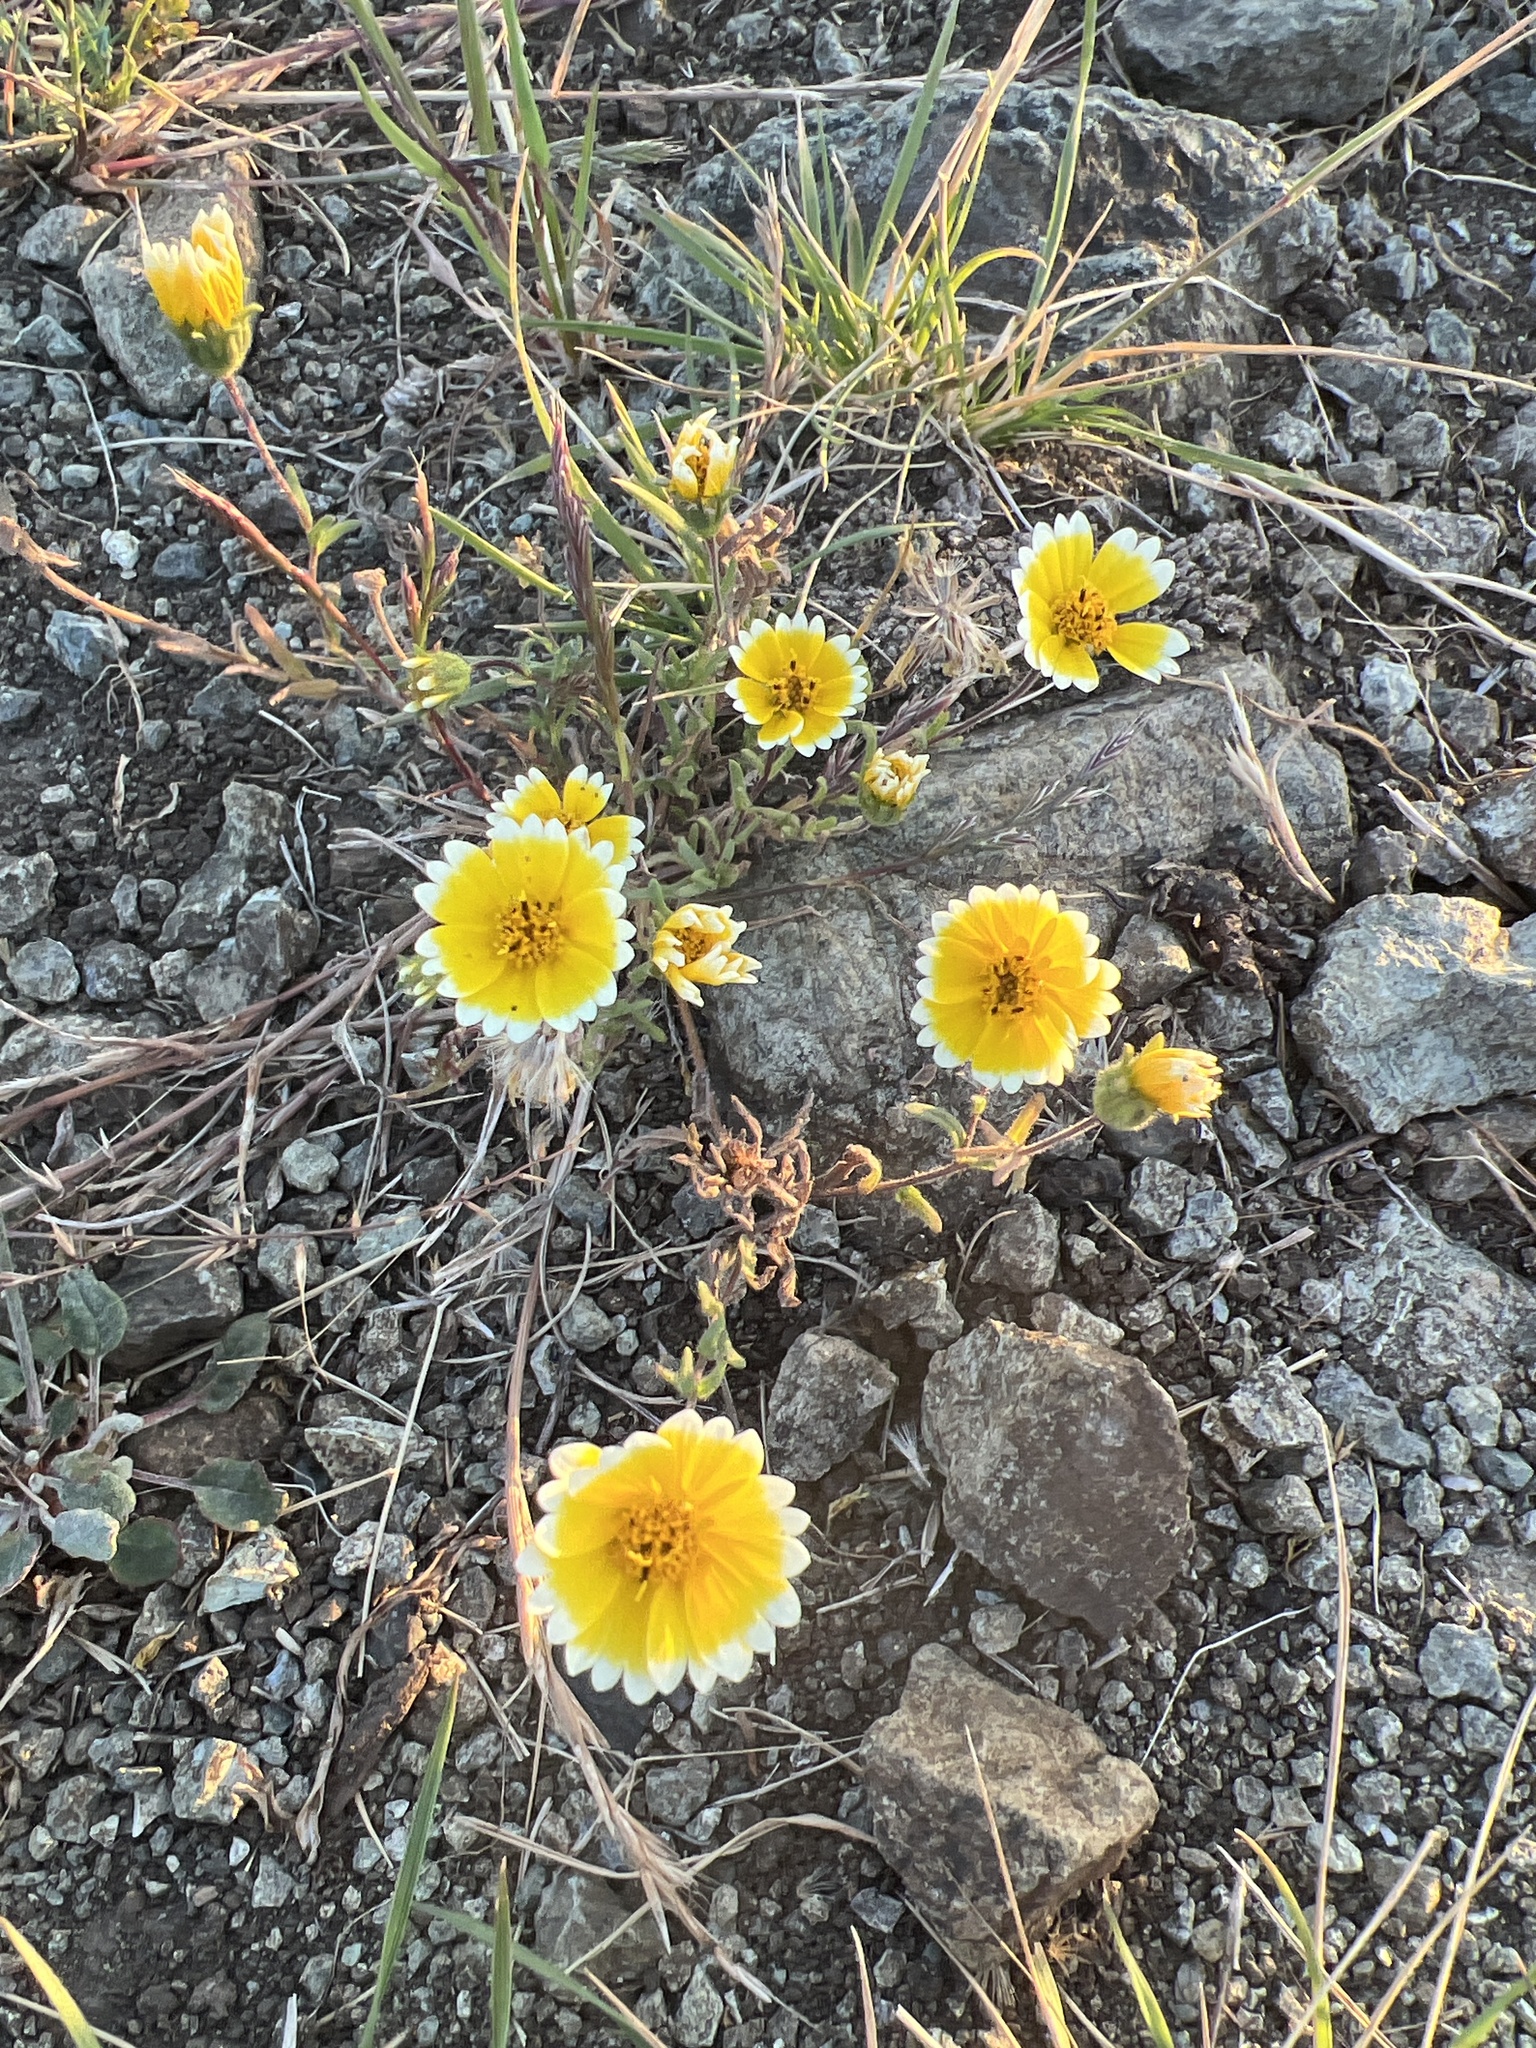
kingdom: Plantae
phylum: Tracheophyta
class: Magnoliopsida
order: Asterales
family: Asteraceae
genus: Layia
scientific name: Layia platyglossa
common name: Tidy-tips
